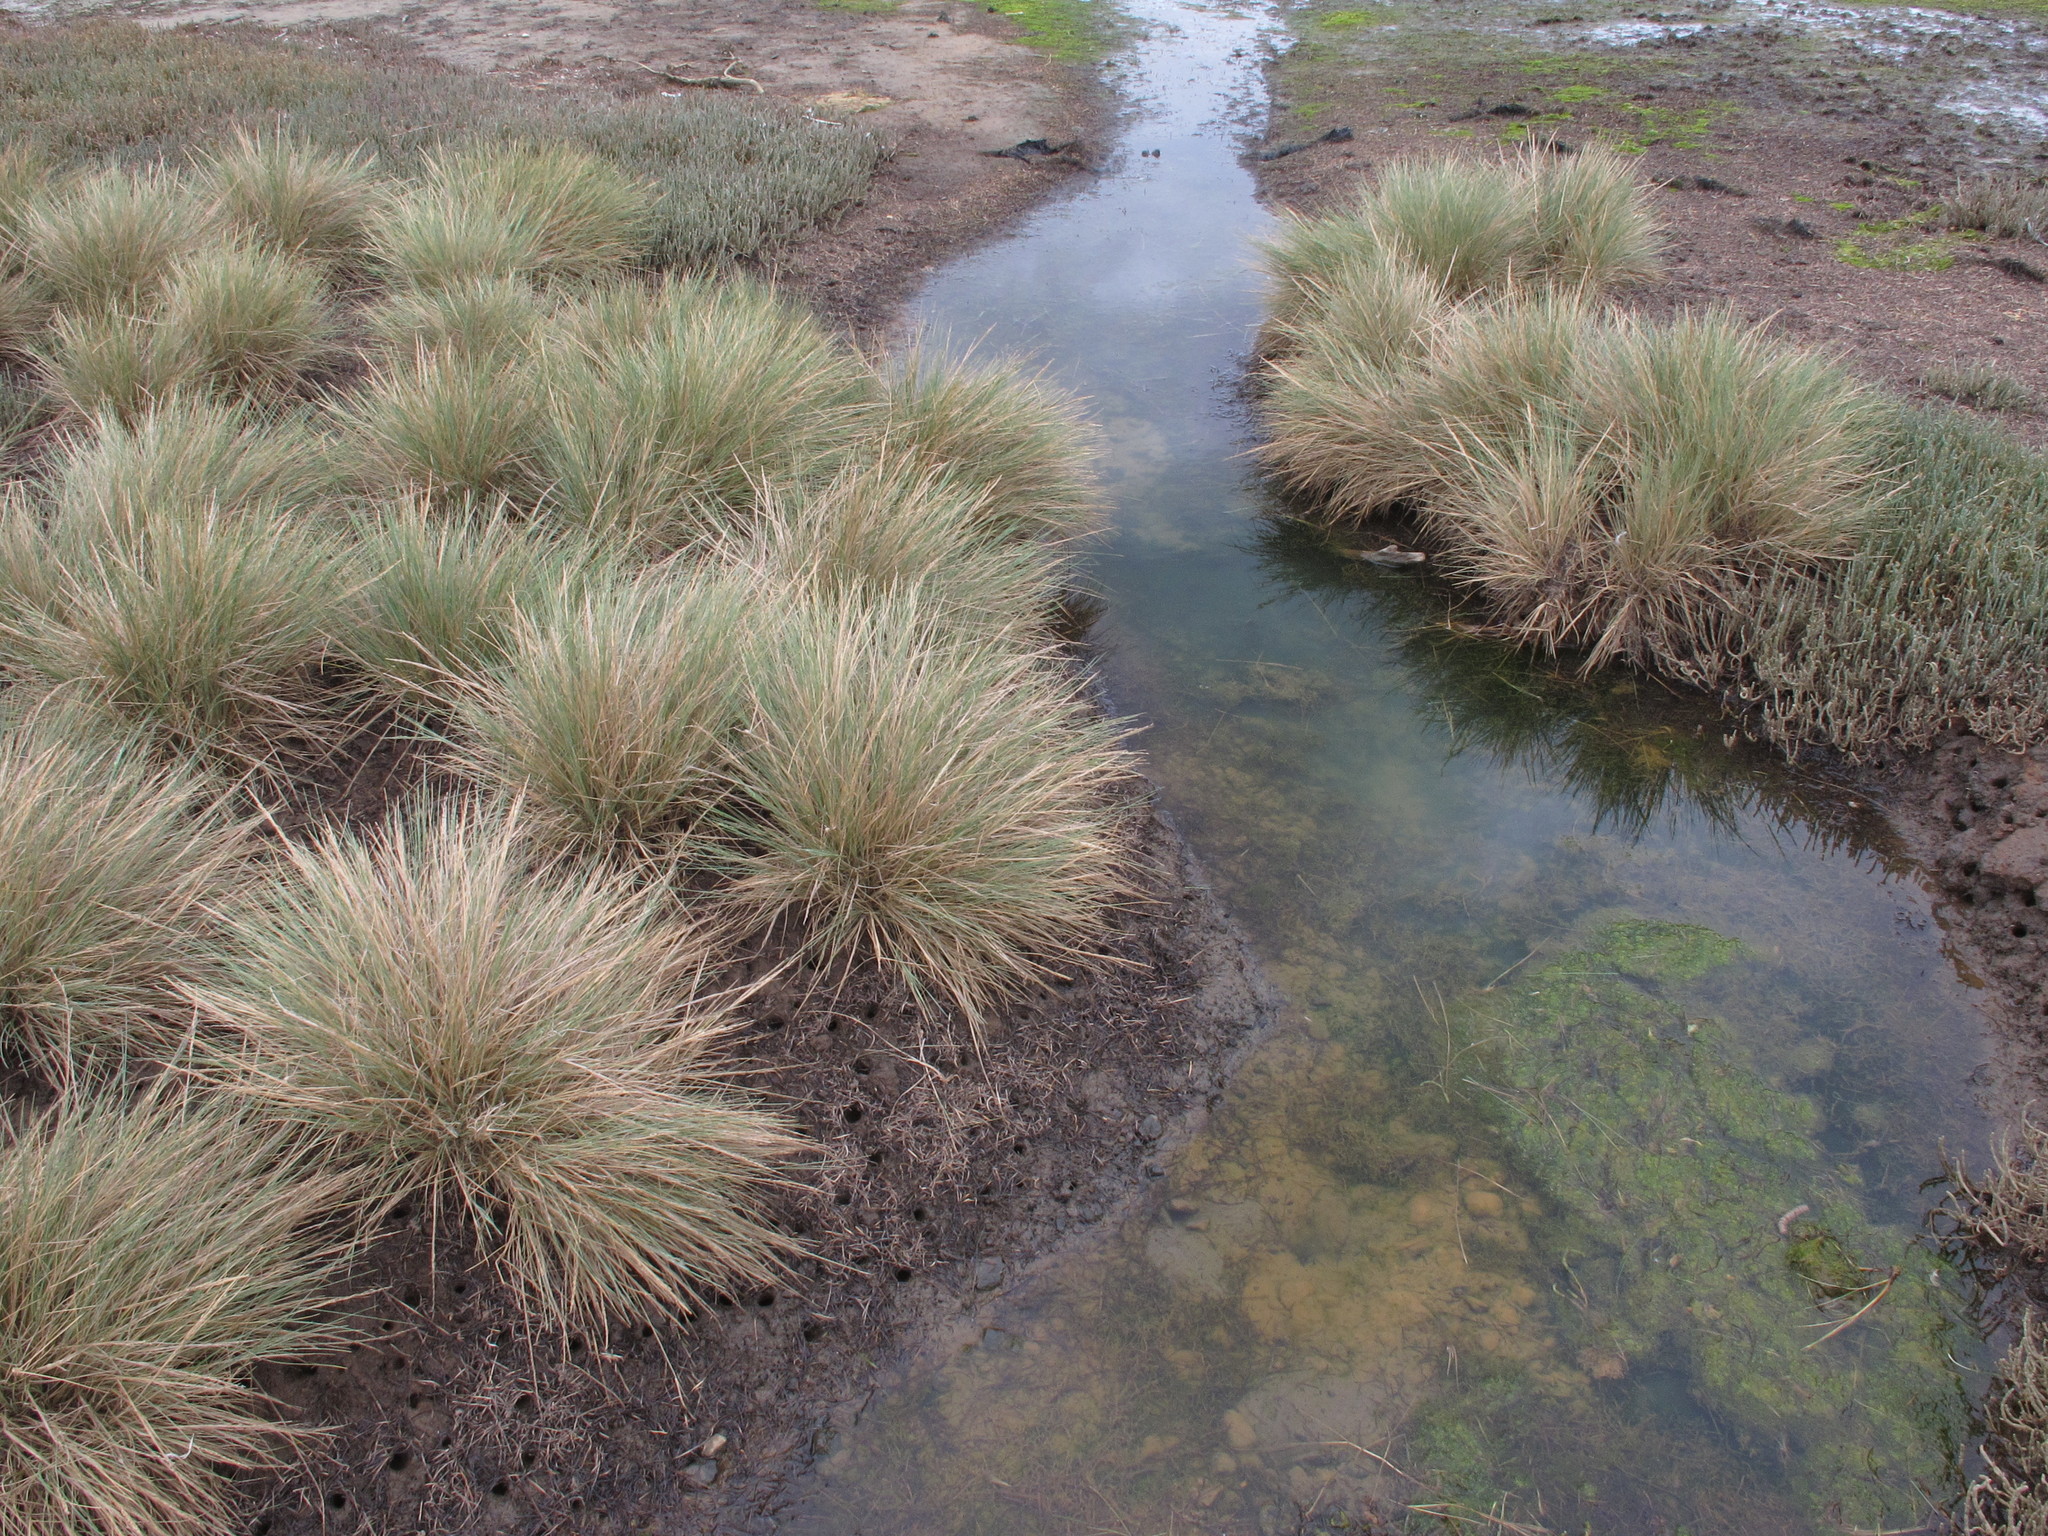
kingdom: Plantae
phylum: Tracheophyta
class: Liliopsida
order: Poales
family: Poaceae
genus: Puccinellia
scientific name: Puccinellia walkeri
